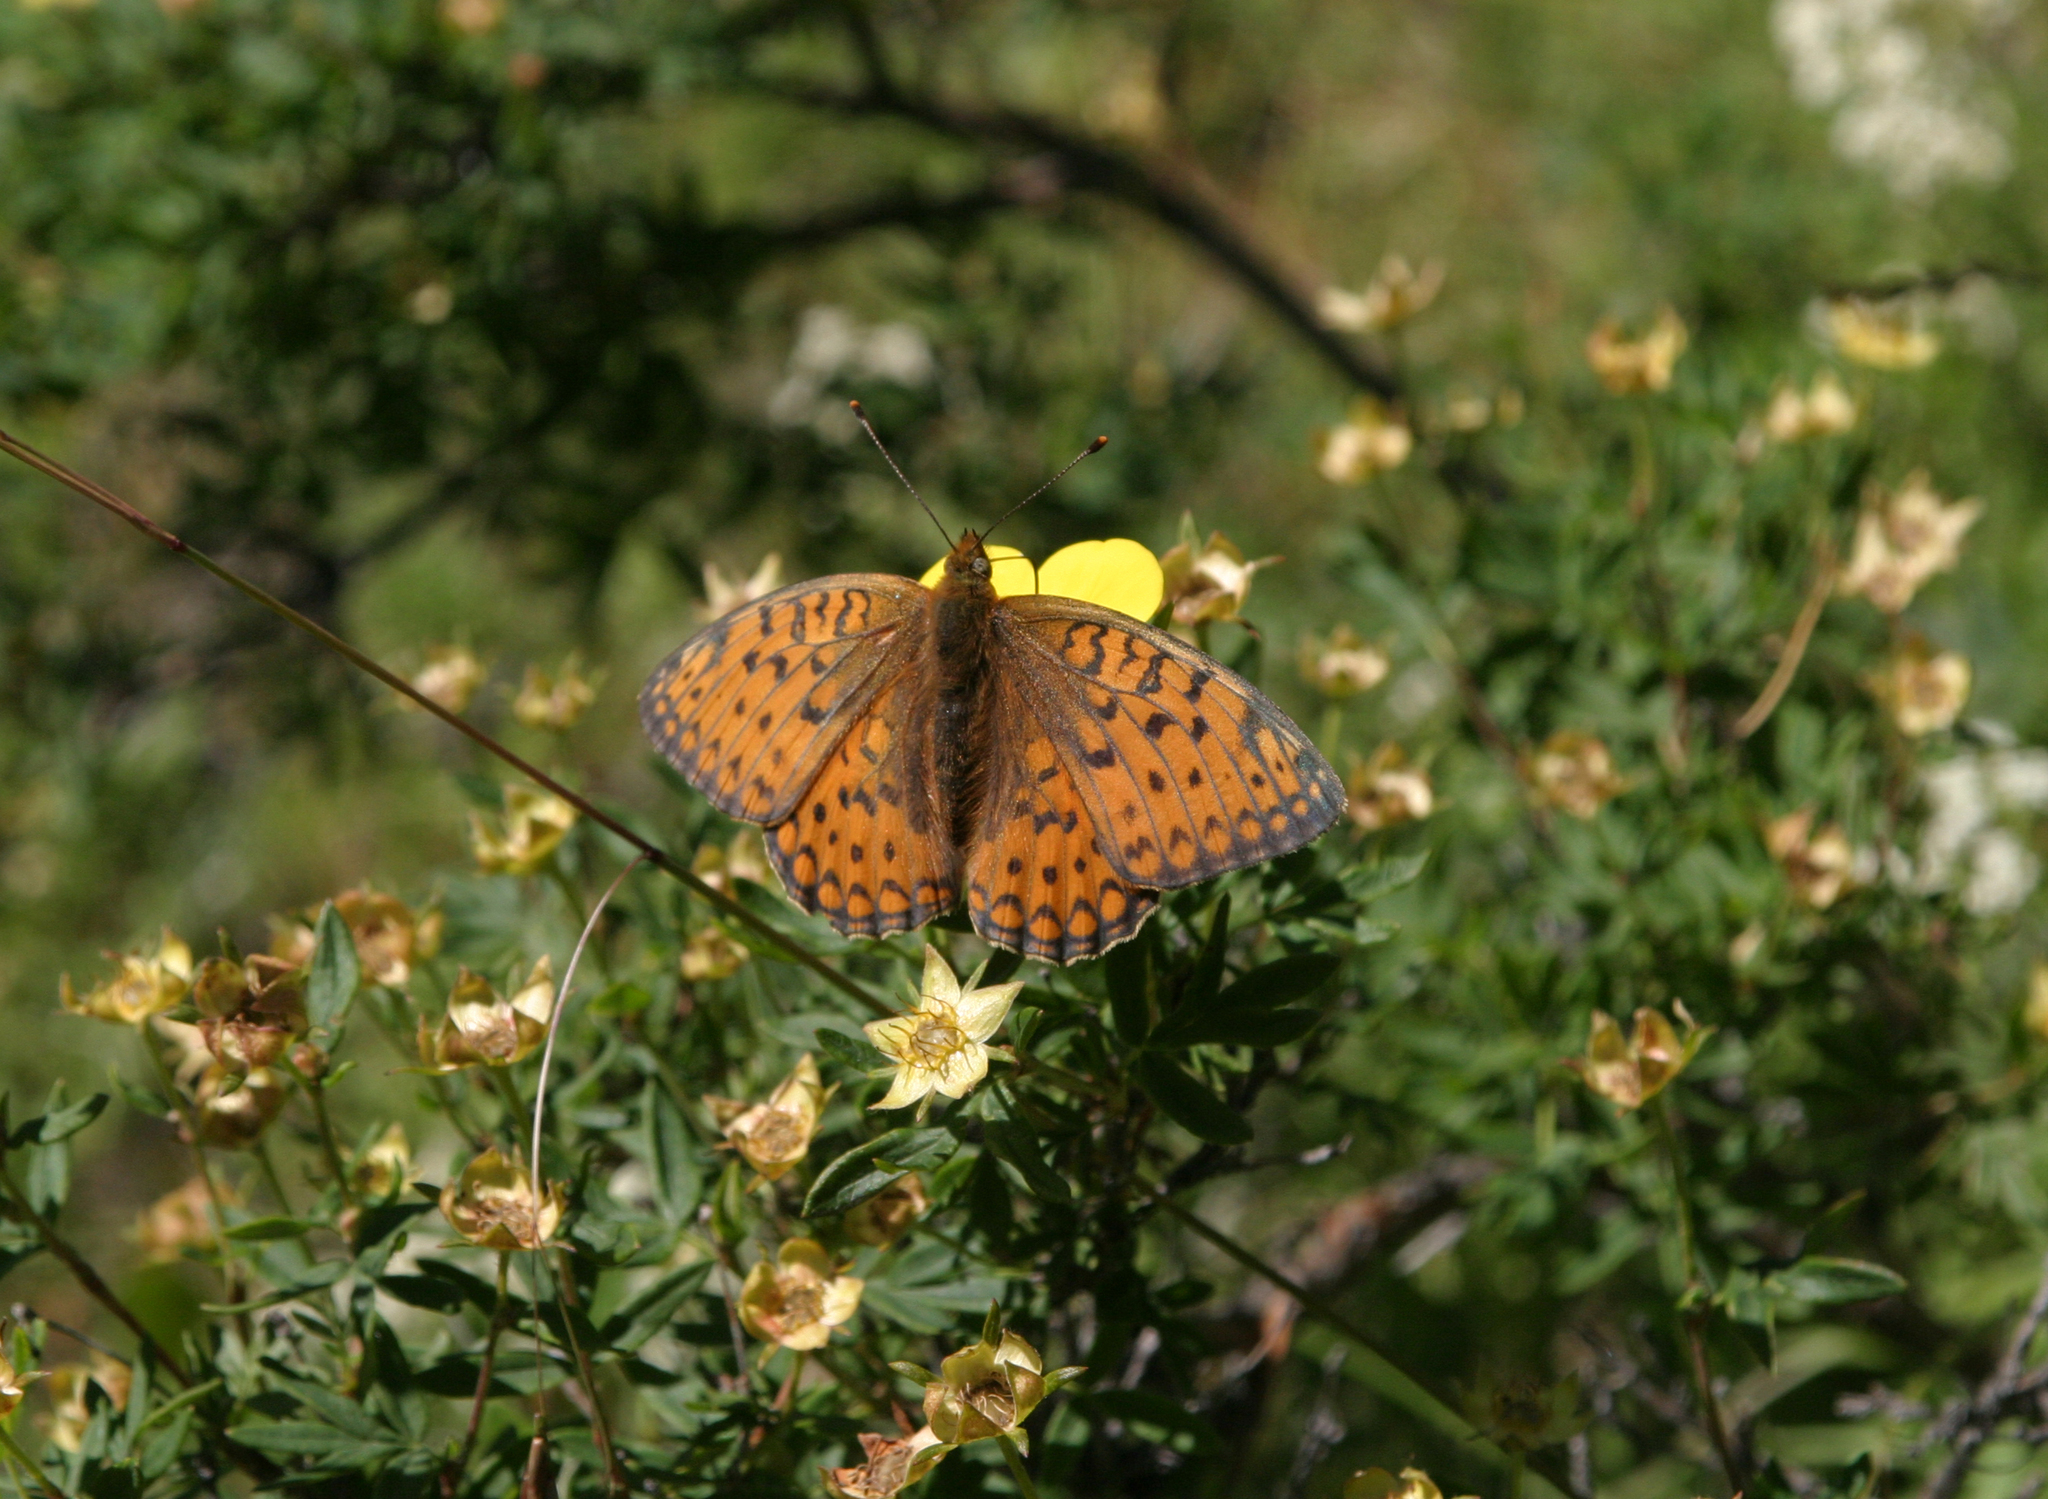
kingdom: Plantae
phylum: Tracheophyta
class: Magnoliopsida
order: Rosales
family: Rosaceae
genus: Dasiphora
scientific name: Dasiphora fruticosa
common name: Shrubby cinquefoil
